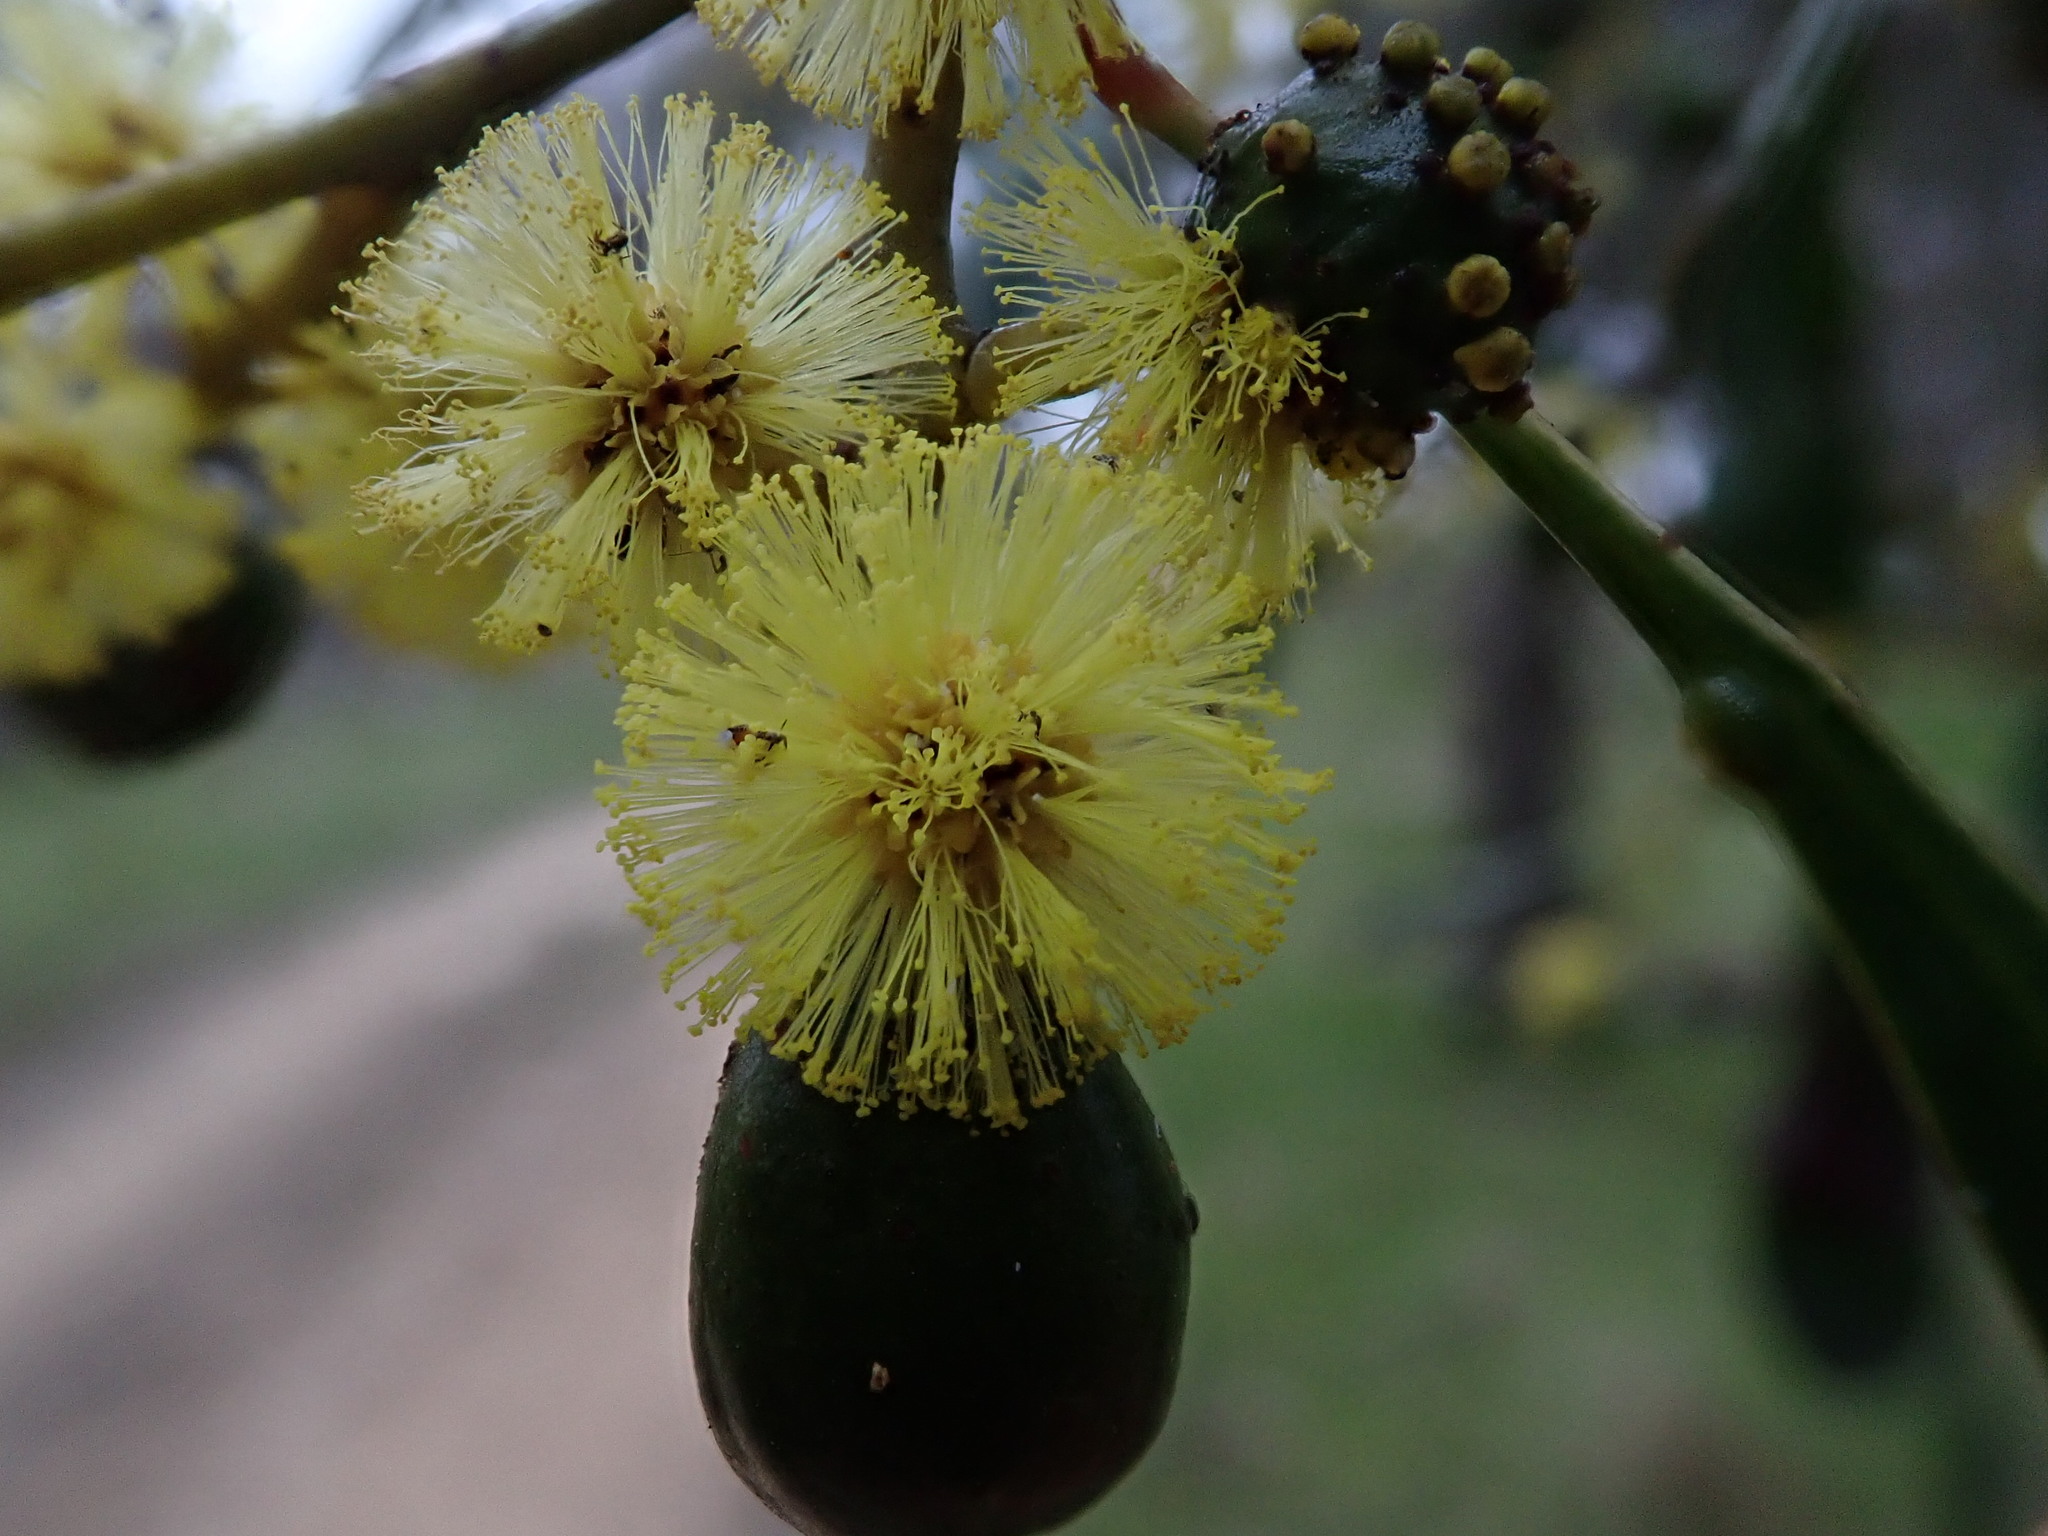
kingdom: Plantae
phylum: Tracheophyta
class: Magnoliopsida
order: Fabales
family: Fabaceae
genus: Acacia
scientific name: Acacia pycnantha
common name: Golden wattle
